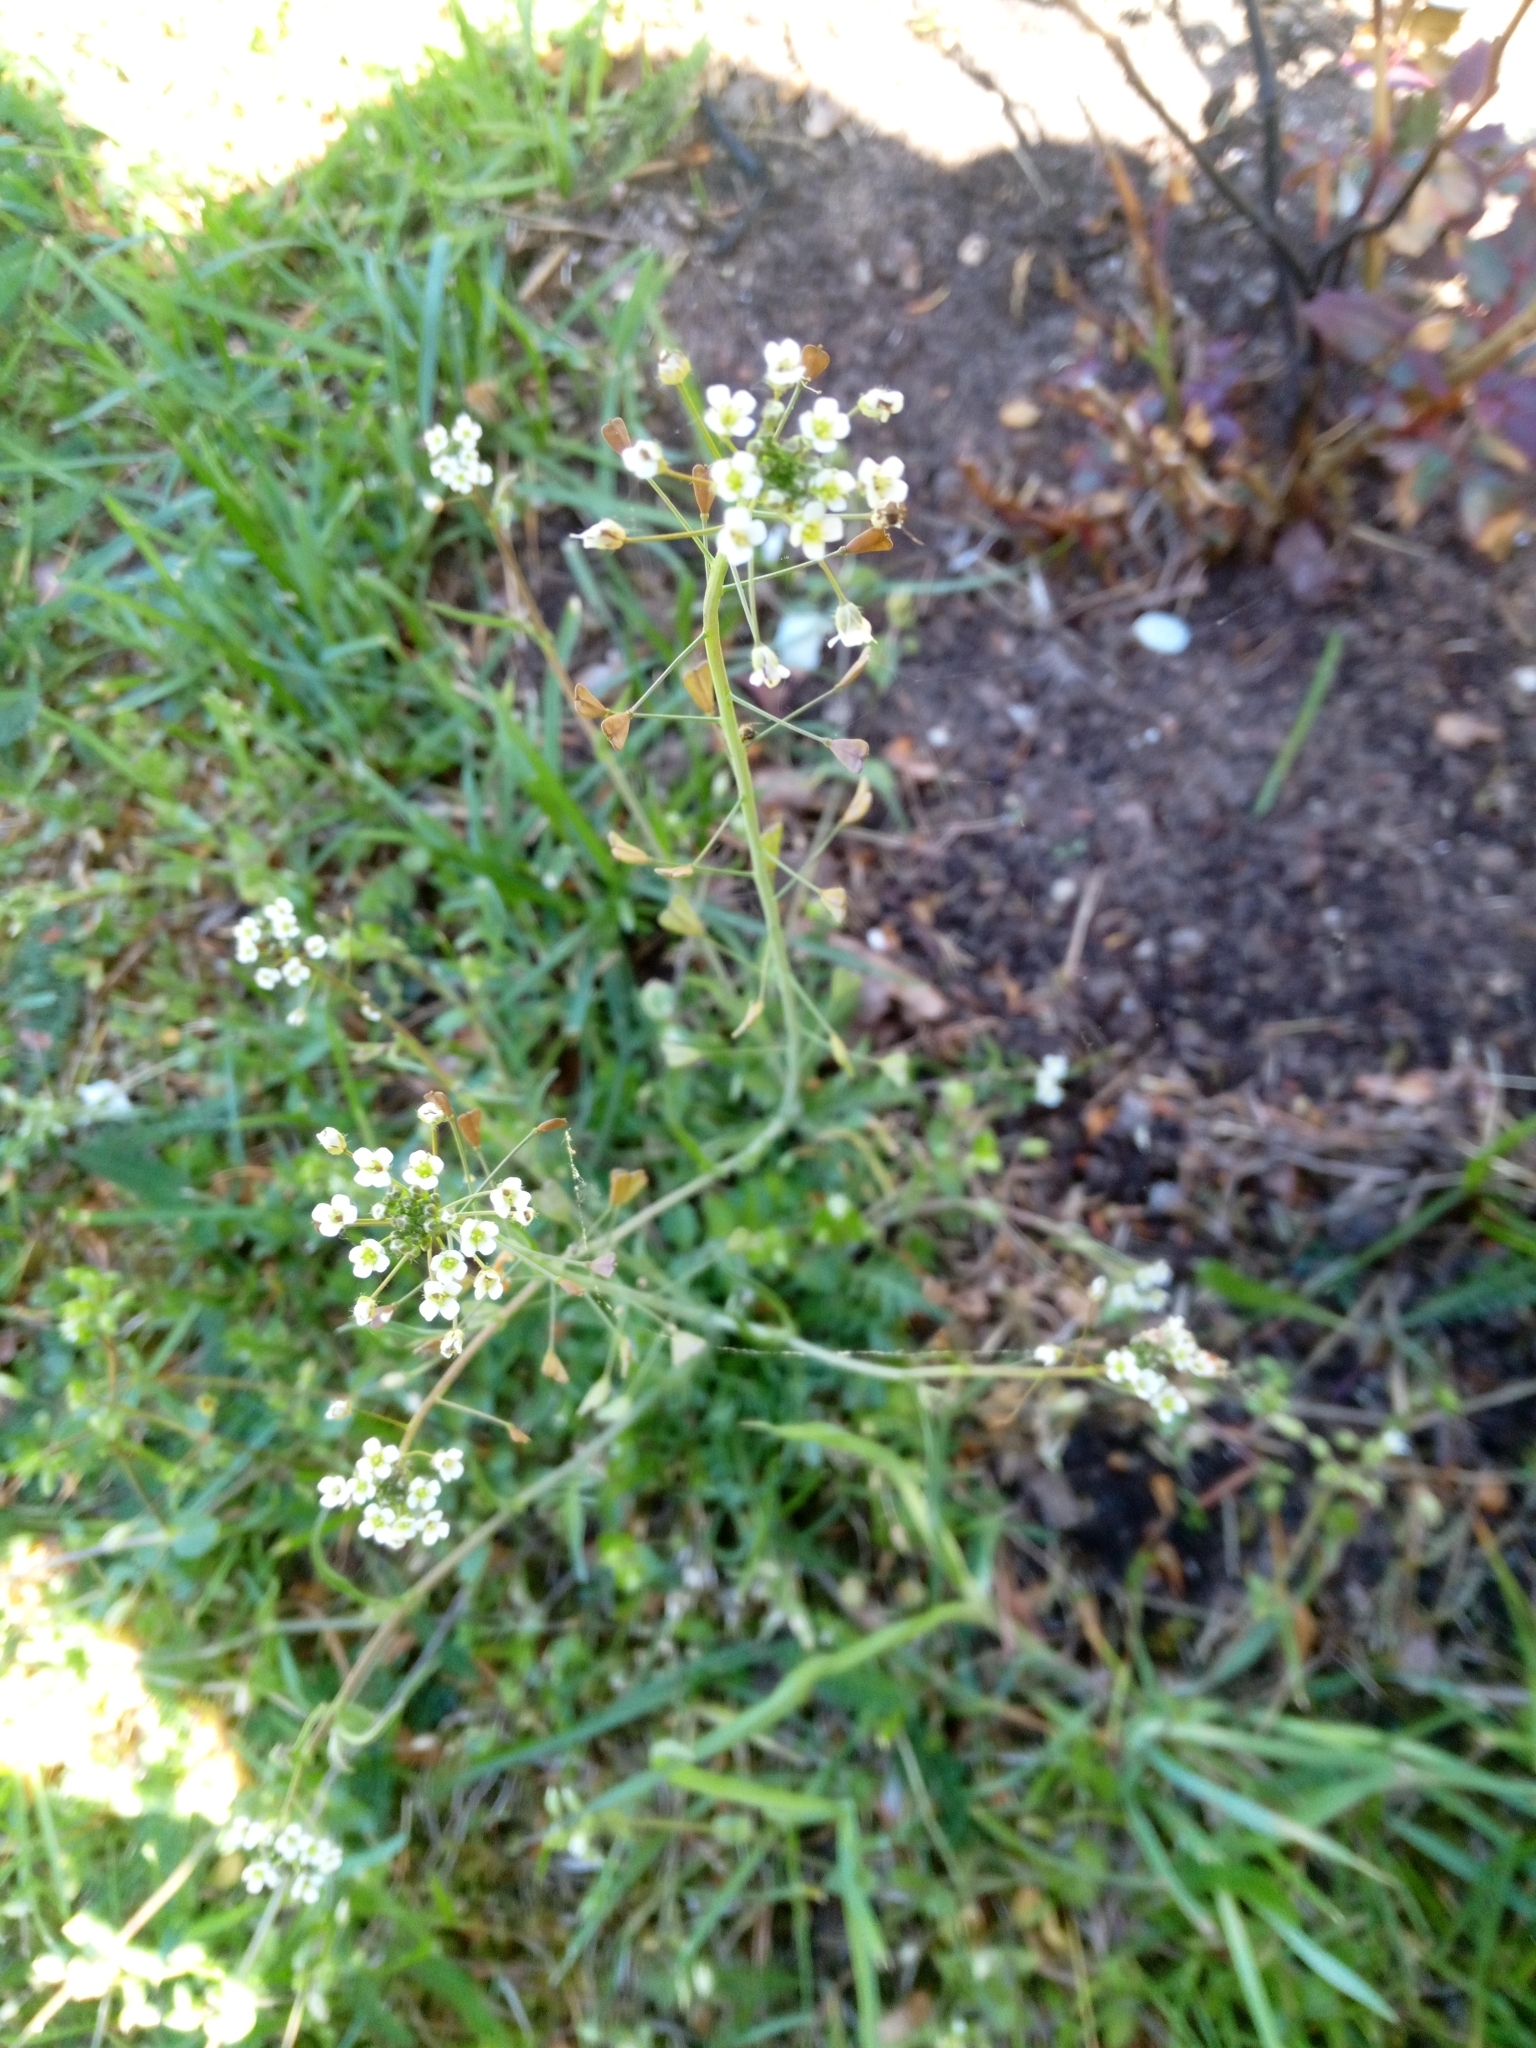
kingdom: Plantae
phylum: Tracheophyta
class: Magnoliopsida
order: Brassicales
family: Brassicaceae
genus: Capsella
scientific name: Capsella bursa-pastoris
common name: Shepherd's purse
